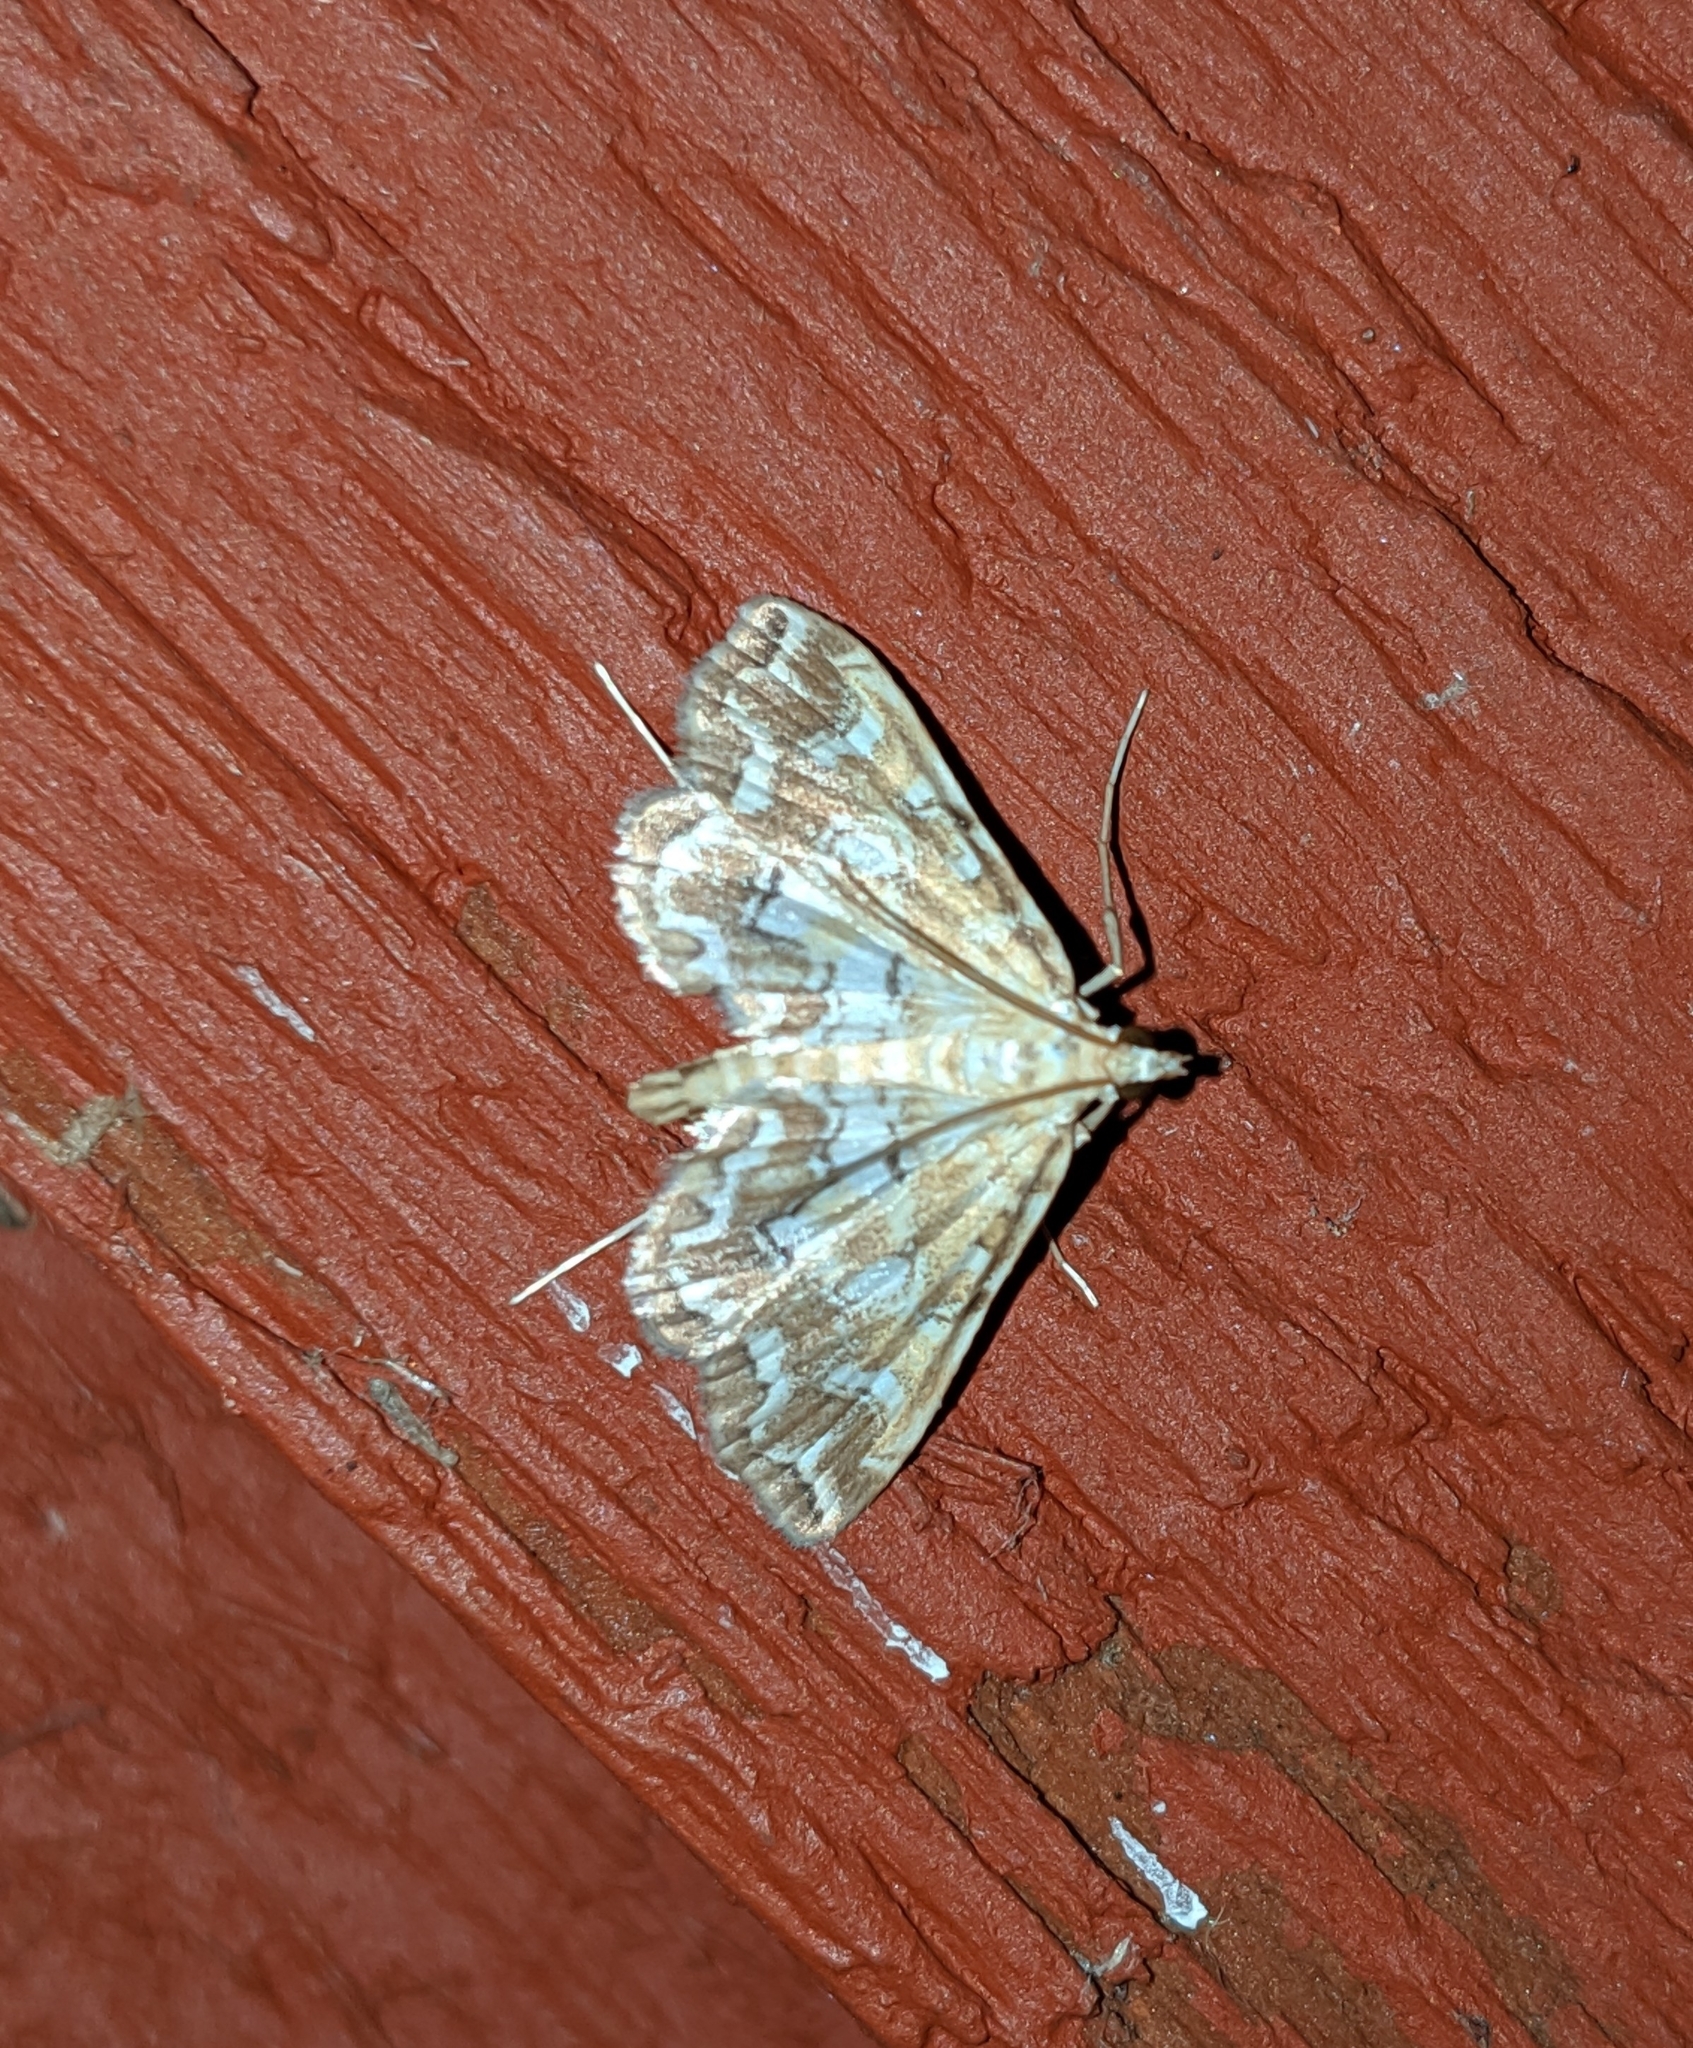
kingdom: Animalia
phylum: Arthropoda
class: Insecta
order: Lepidoptera
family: Crambidae
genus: Elophila
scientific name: Elophila icciusalis
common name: Pondside pyralid moth
